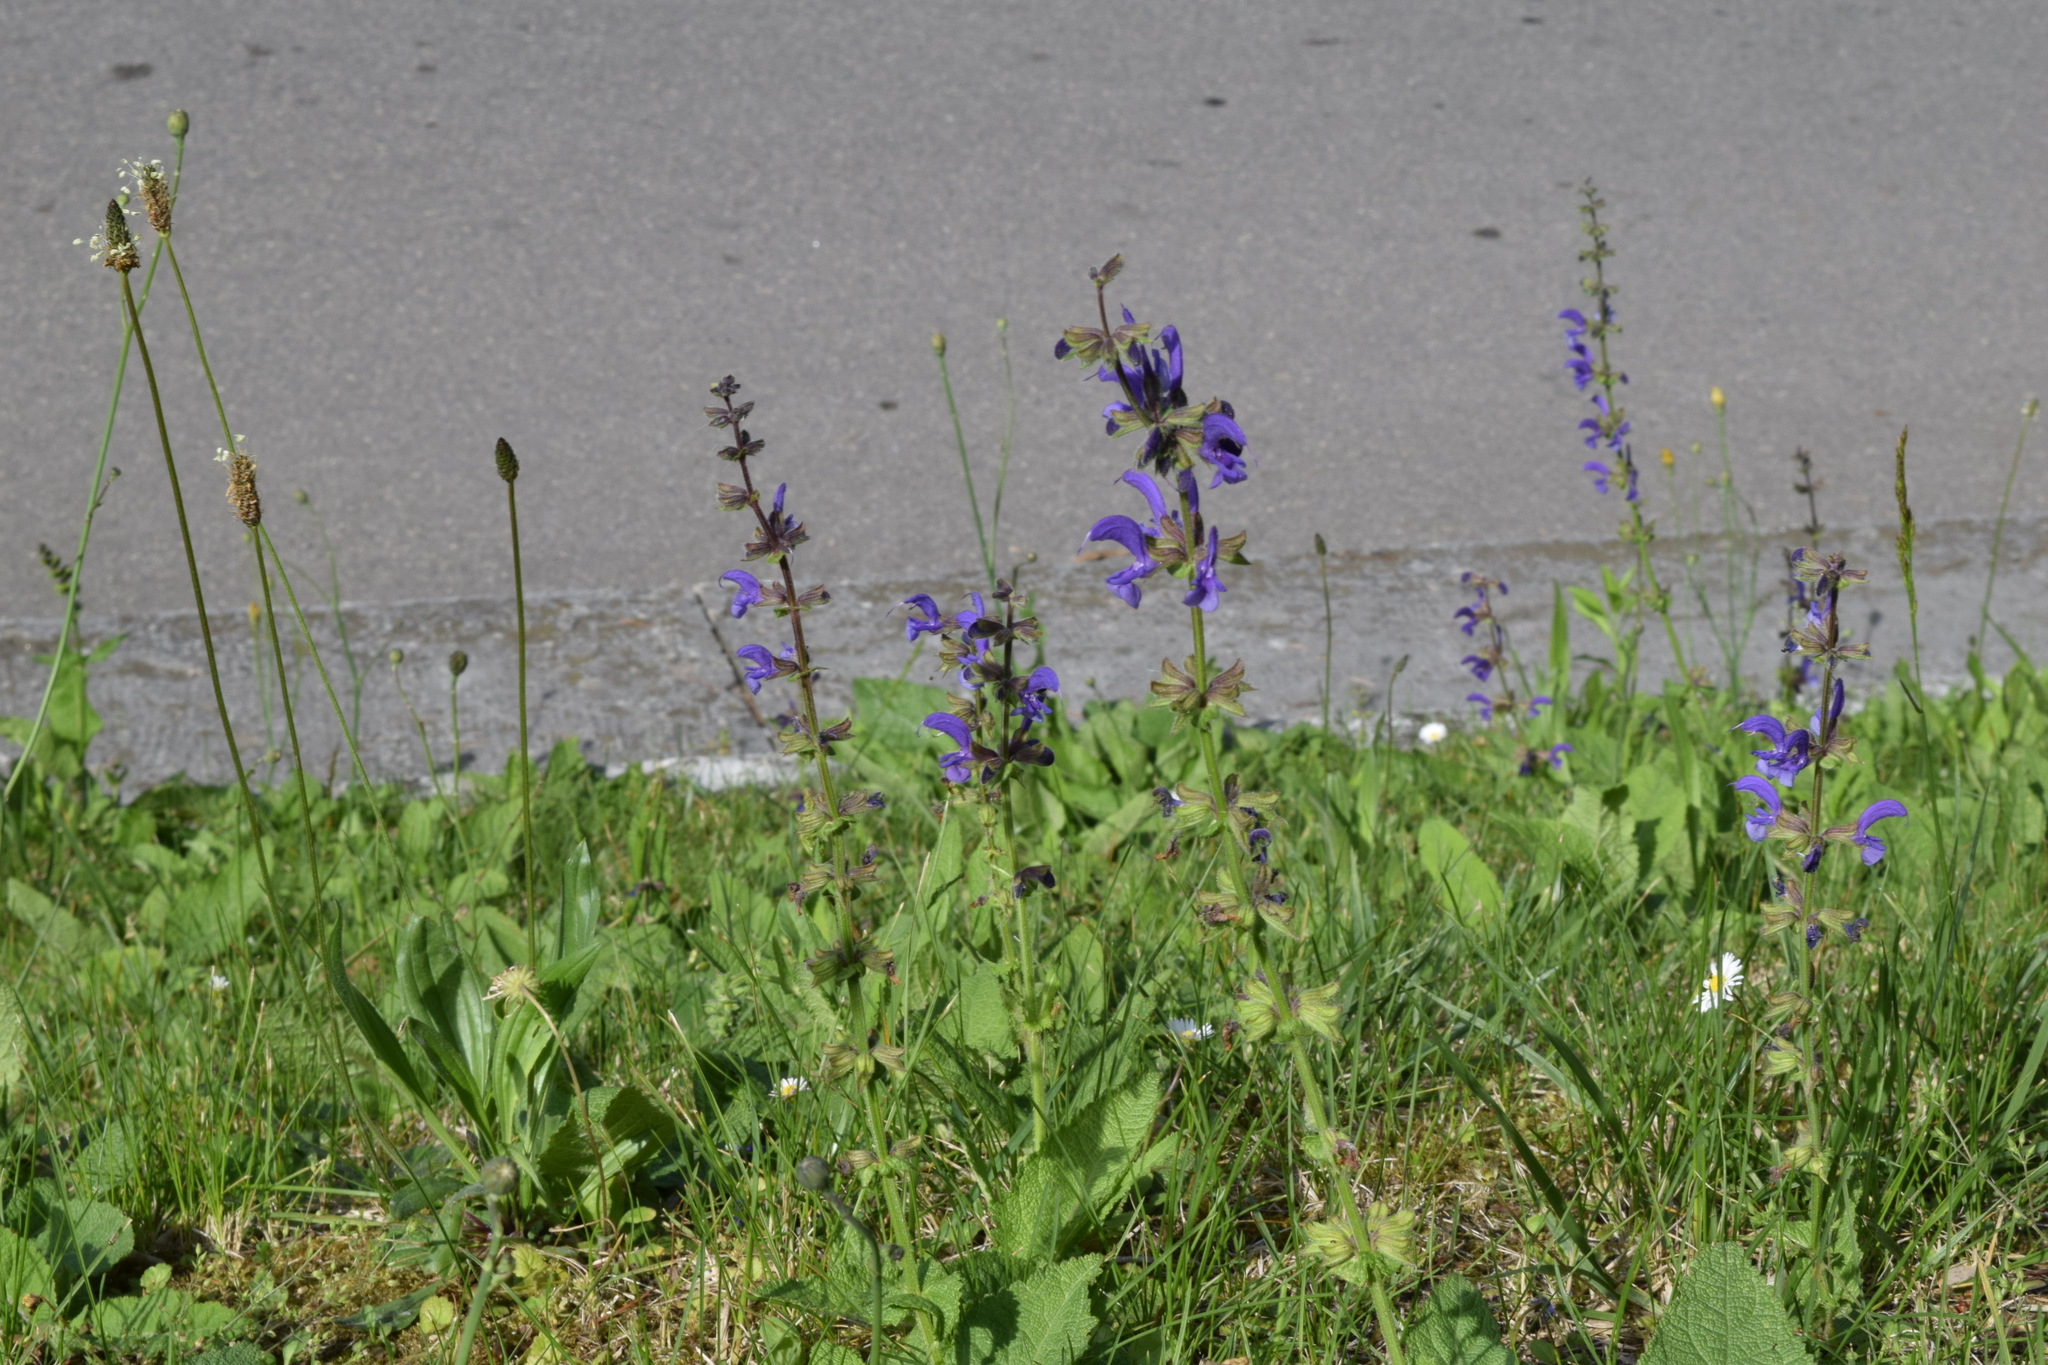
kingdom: Plantae
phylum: Tracheophyta
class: Magnoliopsida
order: Lamiales
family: Lamiaceae
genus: Salvia
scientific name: Salvia pratensis
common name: Meadow sage
